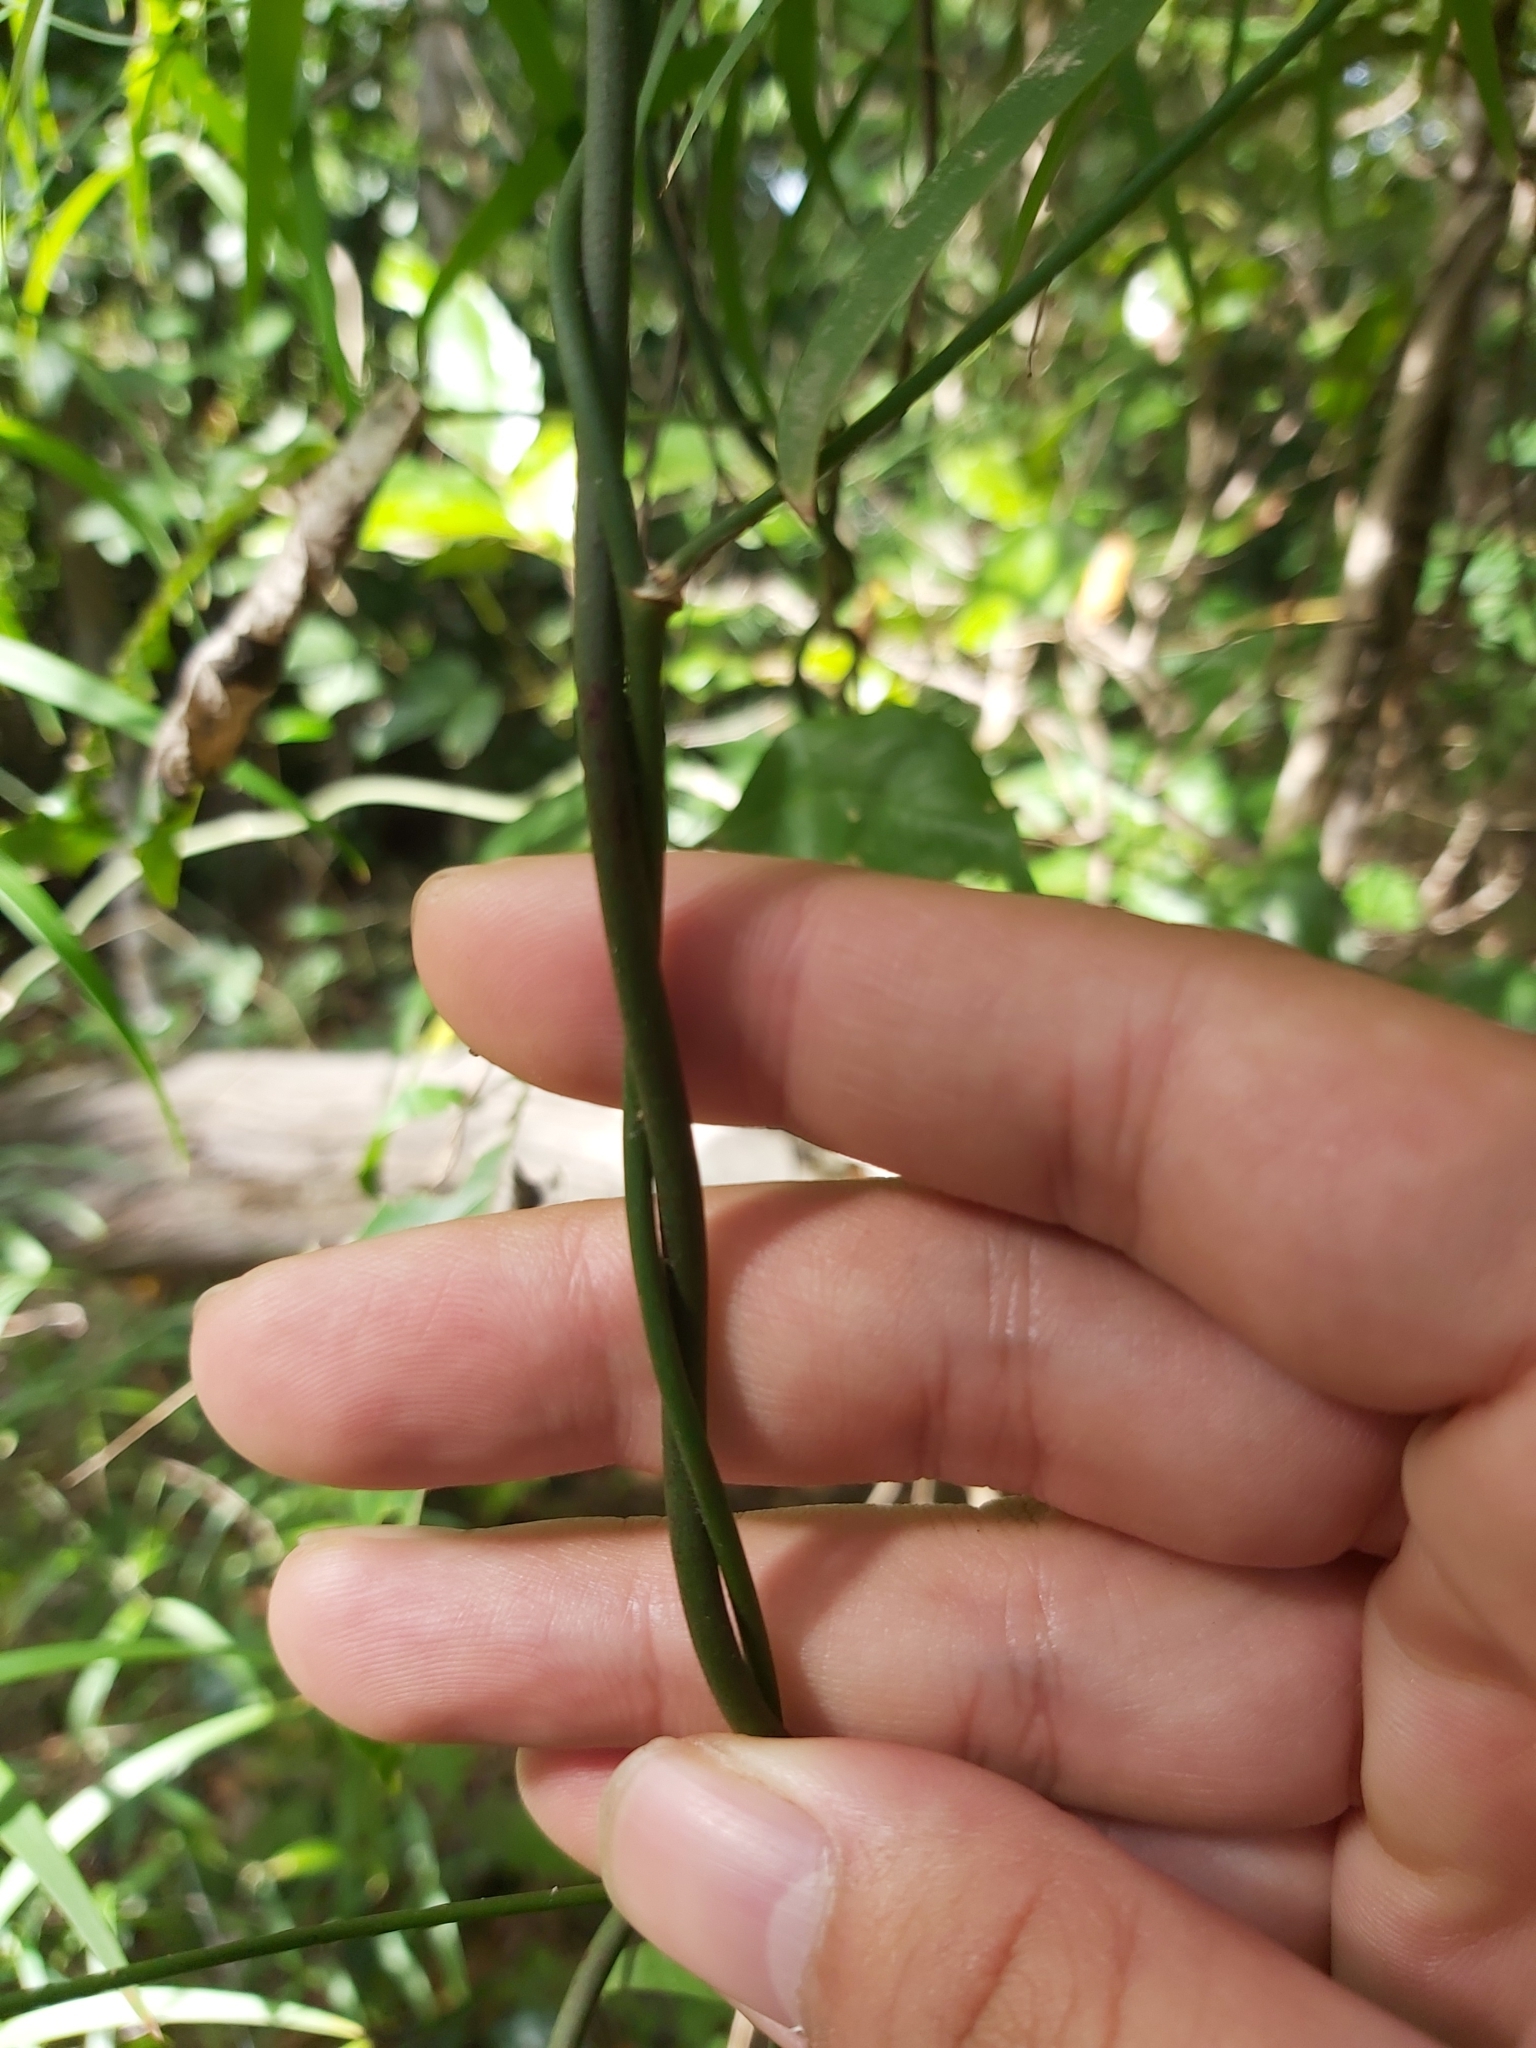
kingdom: Plantae
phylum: Tracheophyta
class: Liliopsida
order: Asparagales
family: Asparagaceae
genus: Eustrephus
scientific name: Eustrephus latifolius
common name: Orangevine
